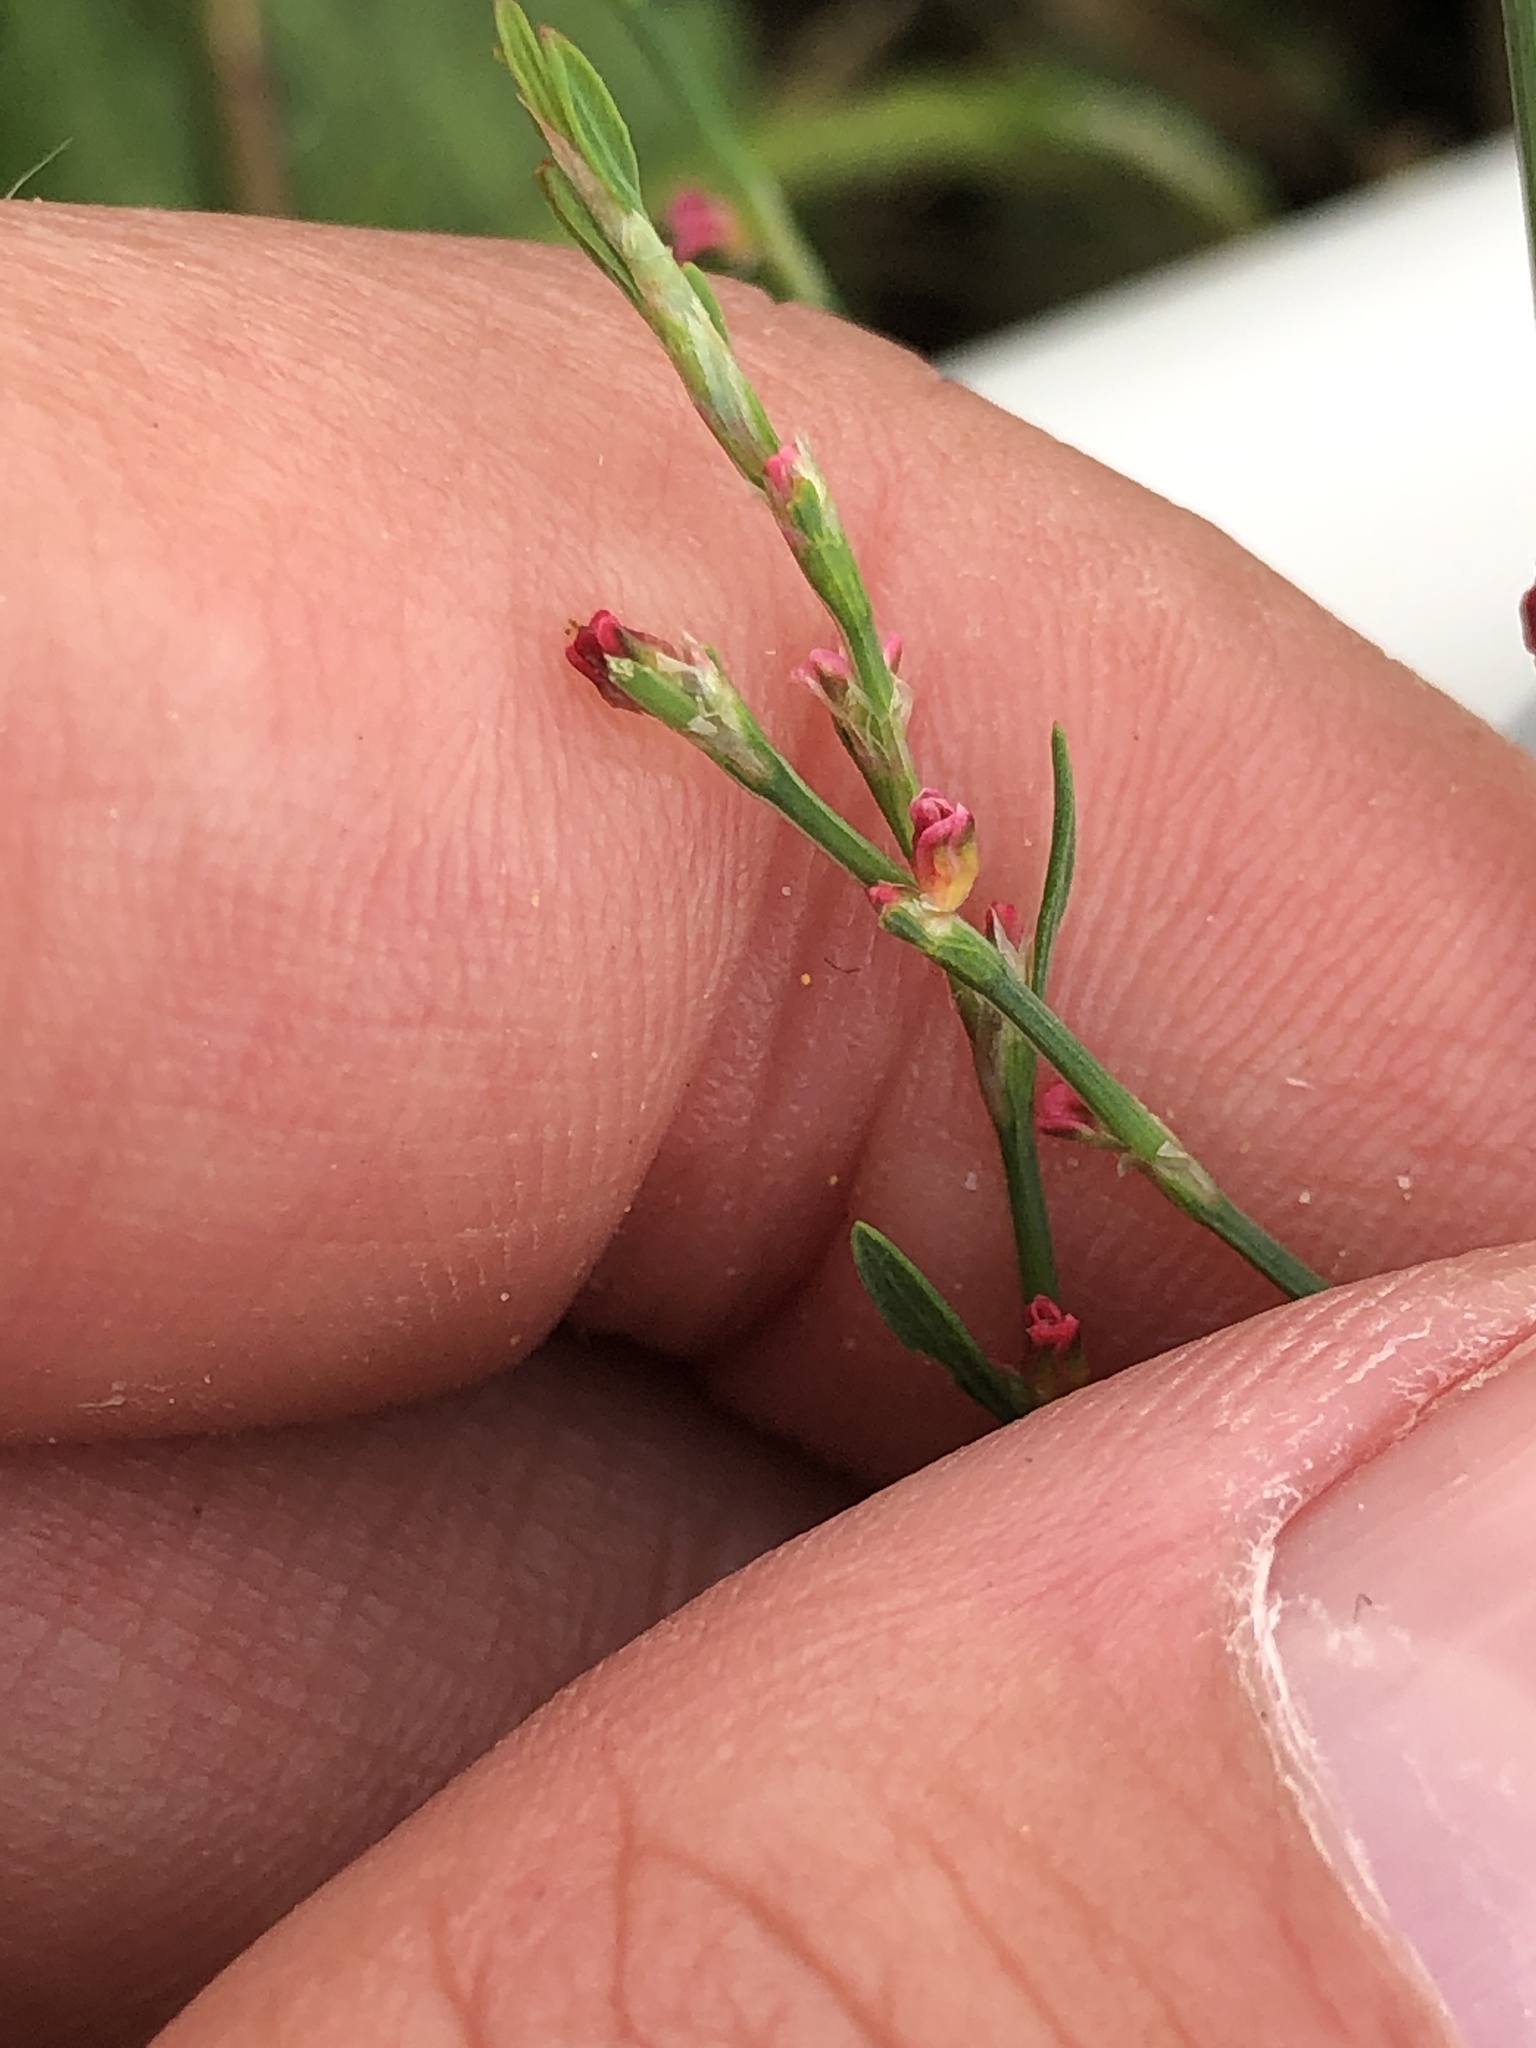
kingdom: Plantae
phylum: Tracheophyta
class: Magnoliopsida
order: Caryophyllales
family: Polygonaceae
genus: Polygonum
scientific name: Polygonum aviculare
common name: Prostrate knotweed
